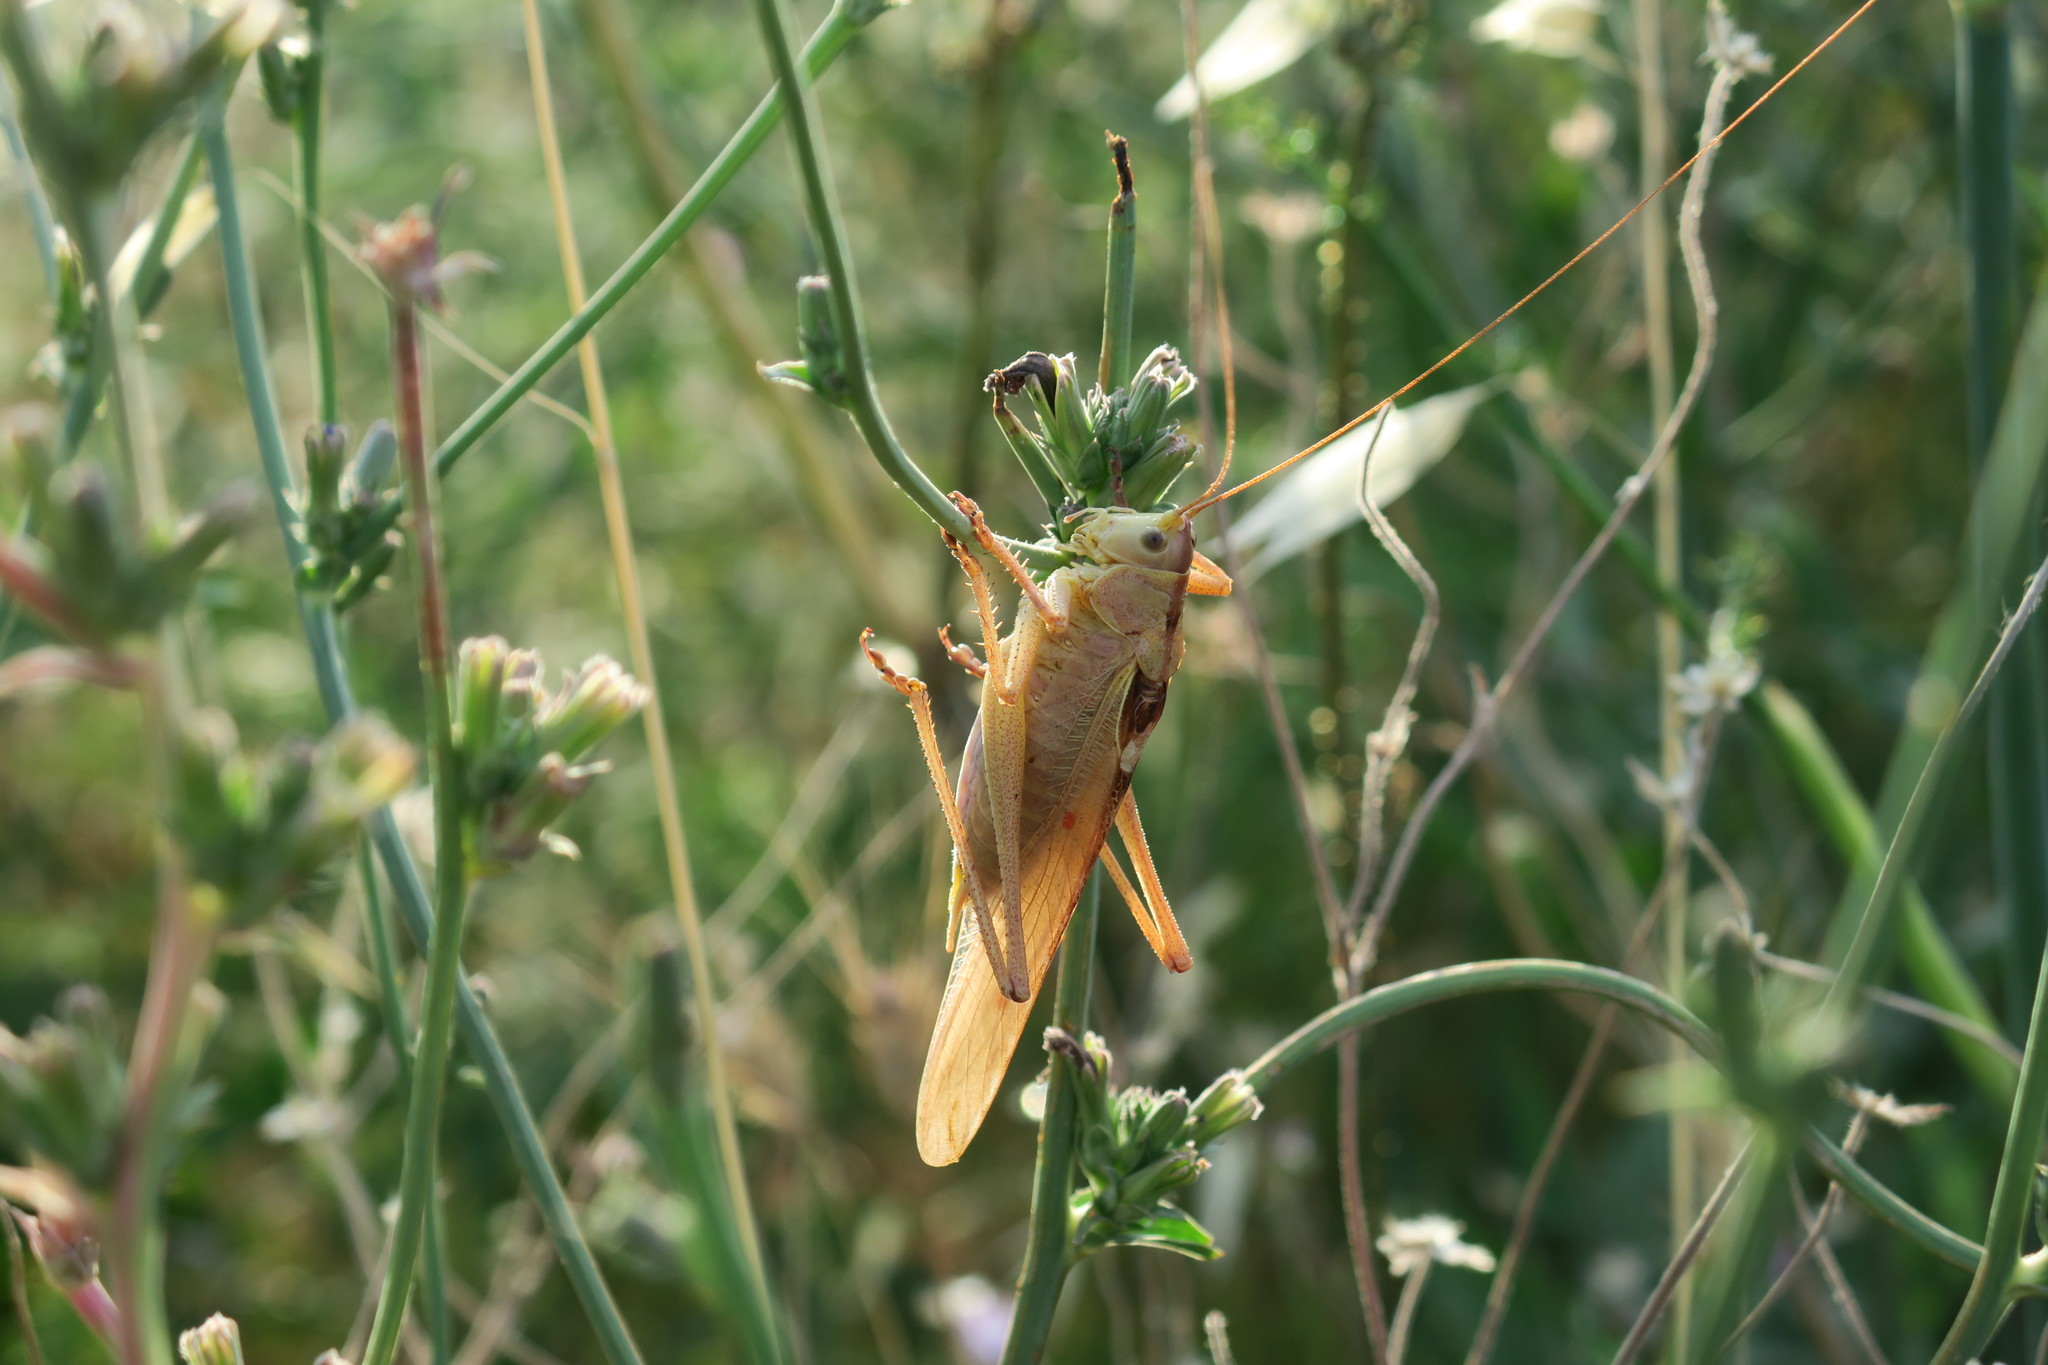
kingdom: Animalia
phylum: Arthropoda
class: Insecta
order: Orthoptera
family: Tettigoniidae
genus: Tettigonia
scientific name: Tettigonia viridissima
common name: Great green bush-cricket
